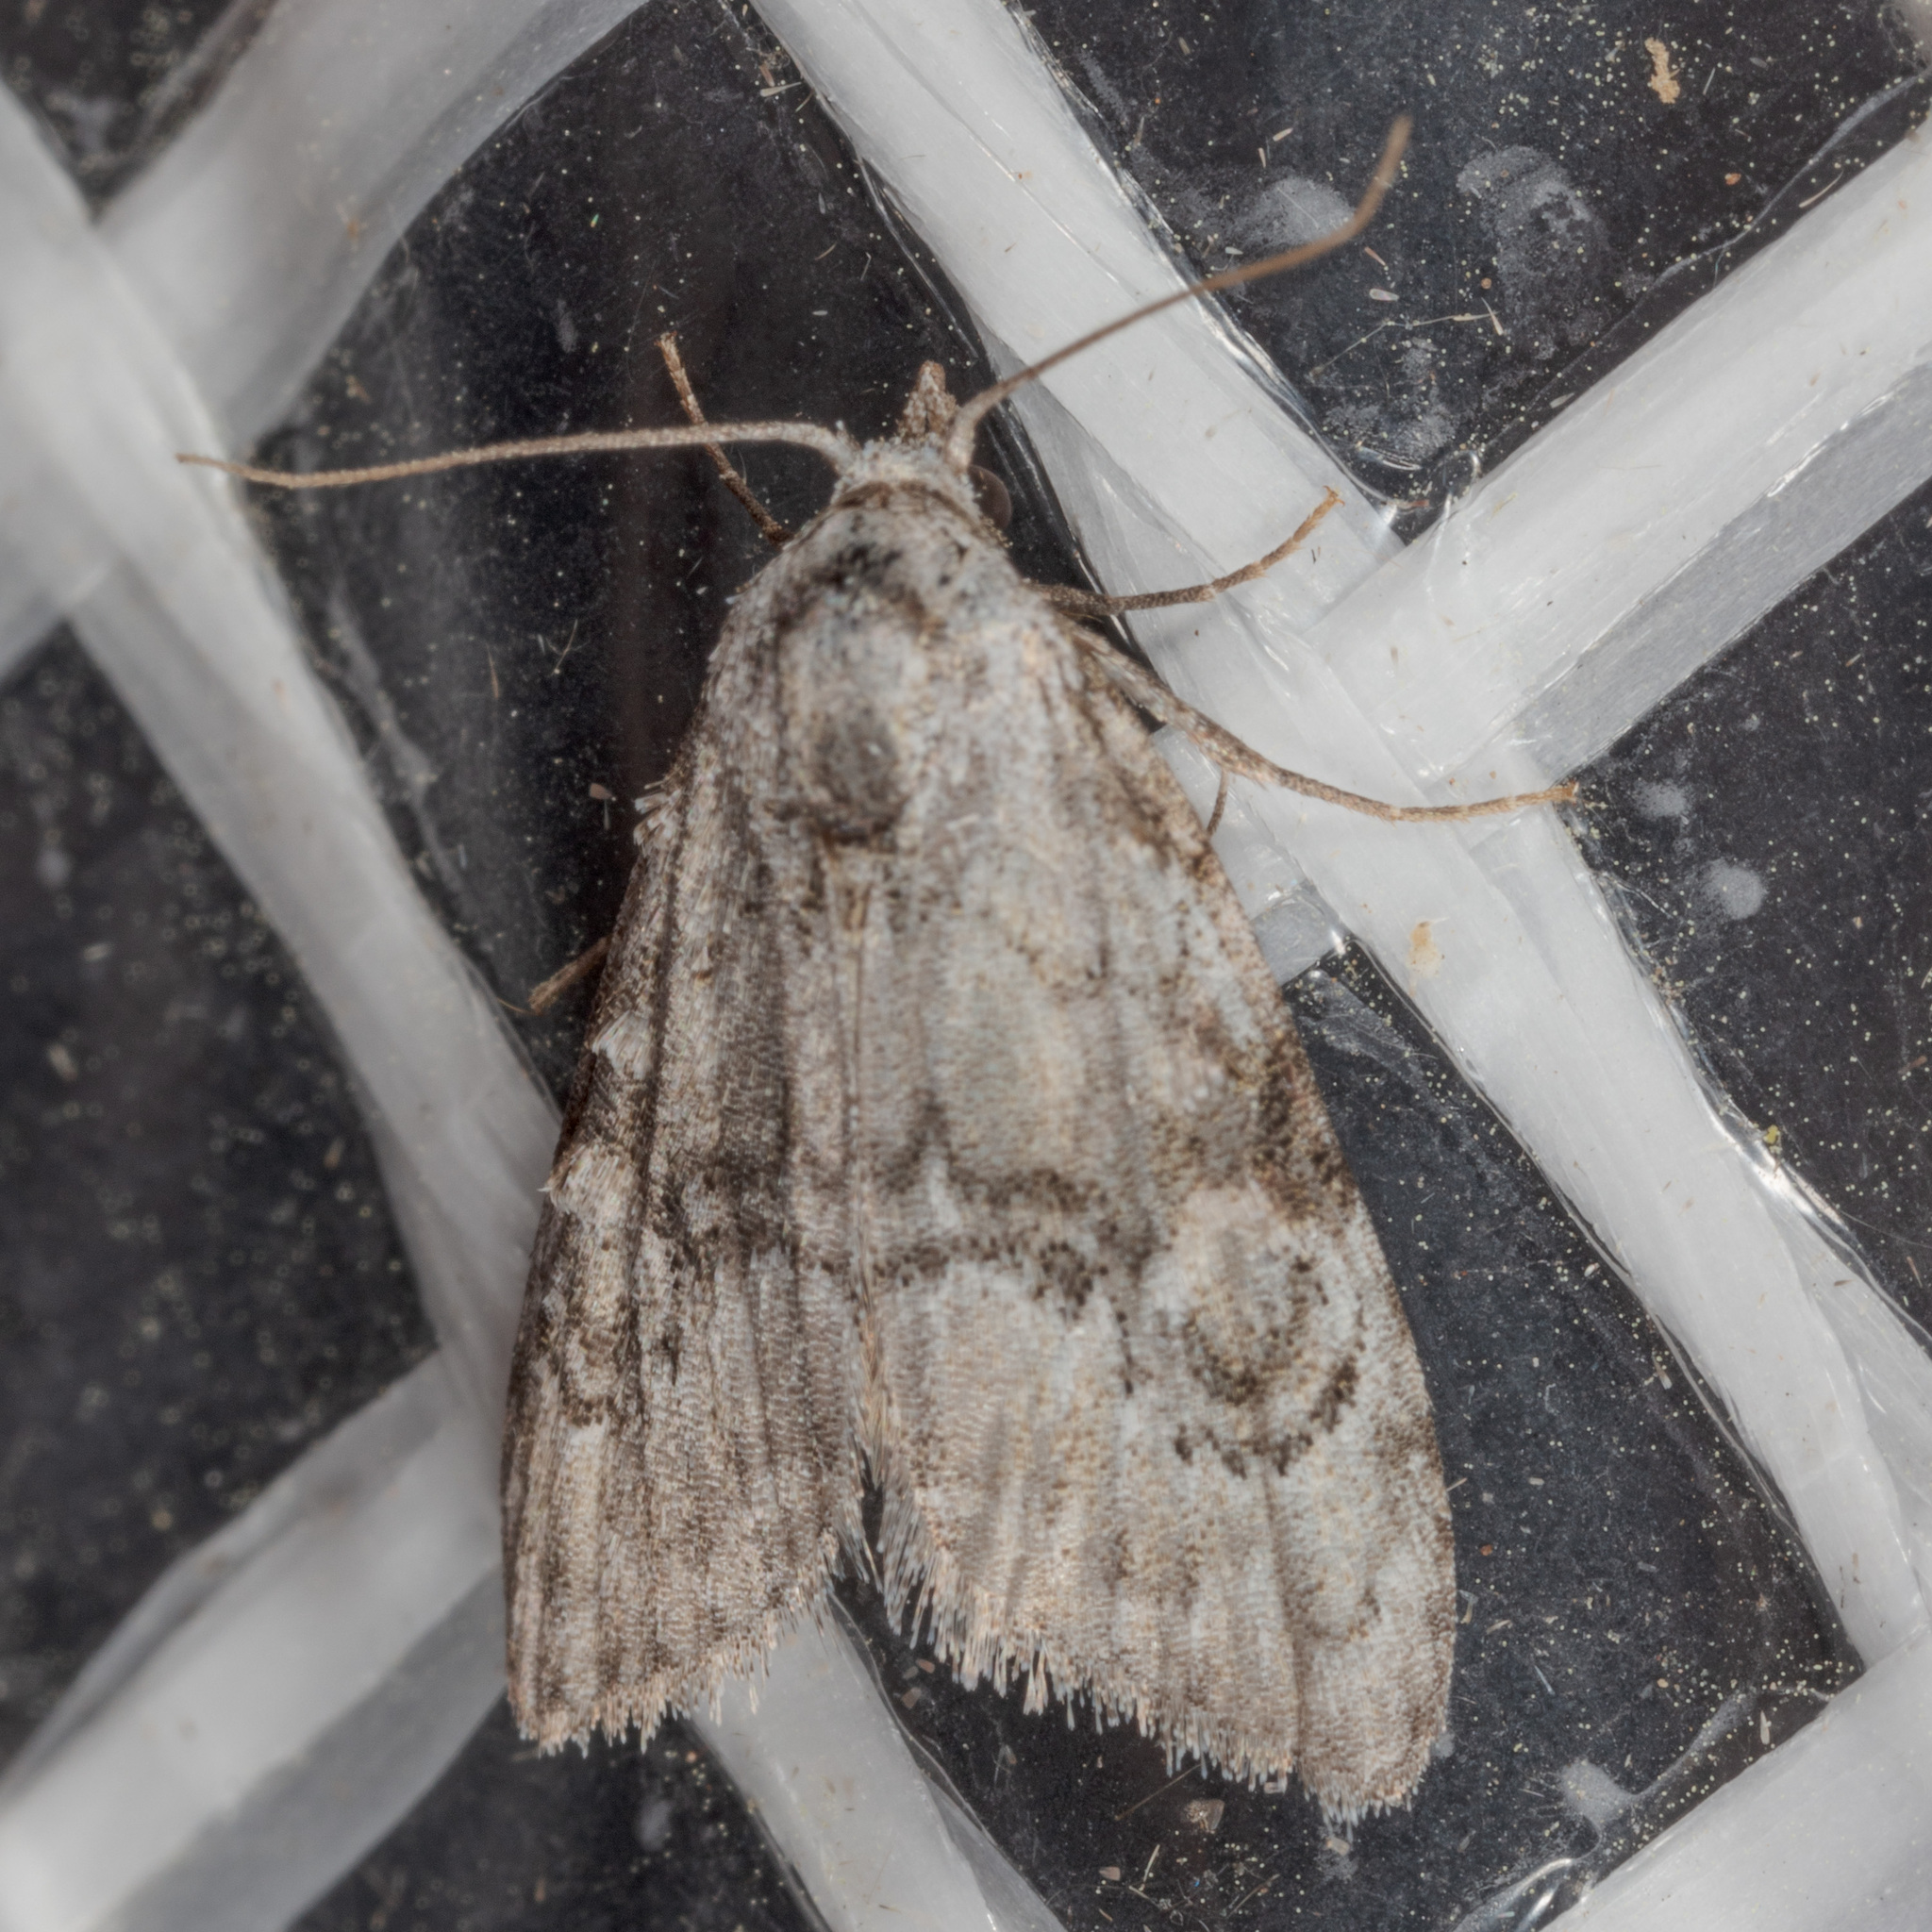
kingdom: Animalia
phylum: Arthropoda
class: Insecta
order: Lepidoptera
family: Nolidae
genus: Meganola
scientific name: Meganola minuscula
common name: Confused meganola moth
